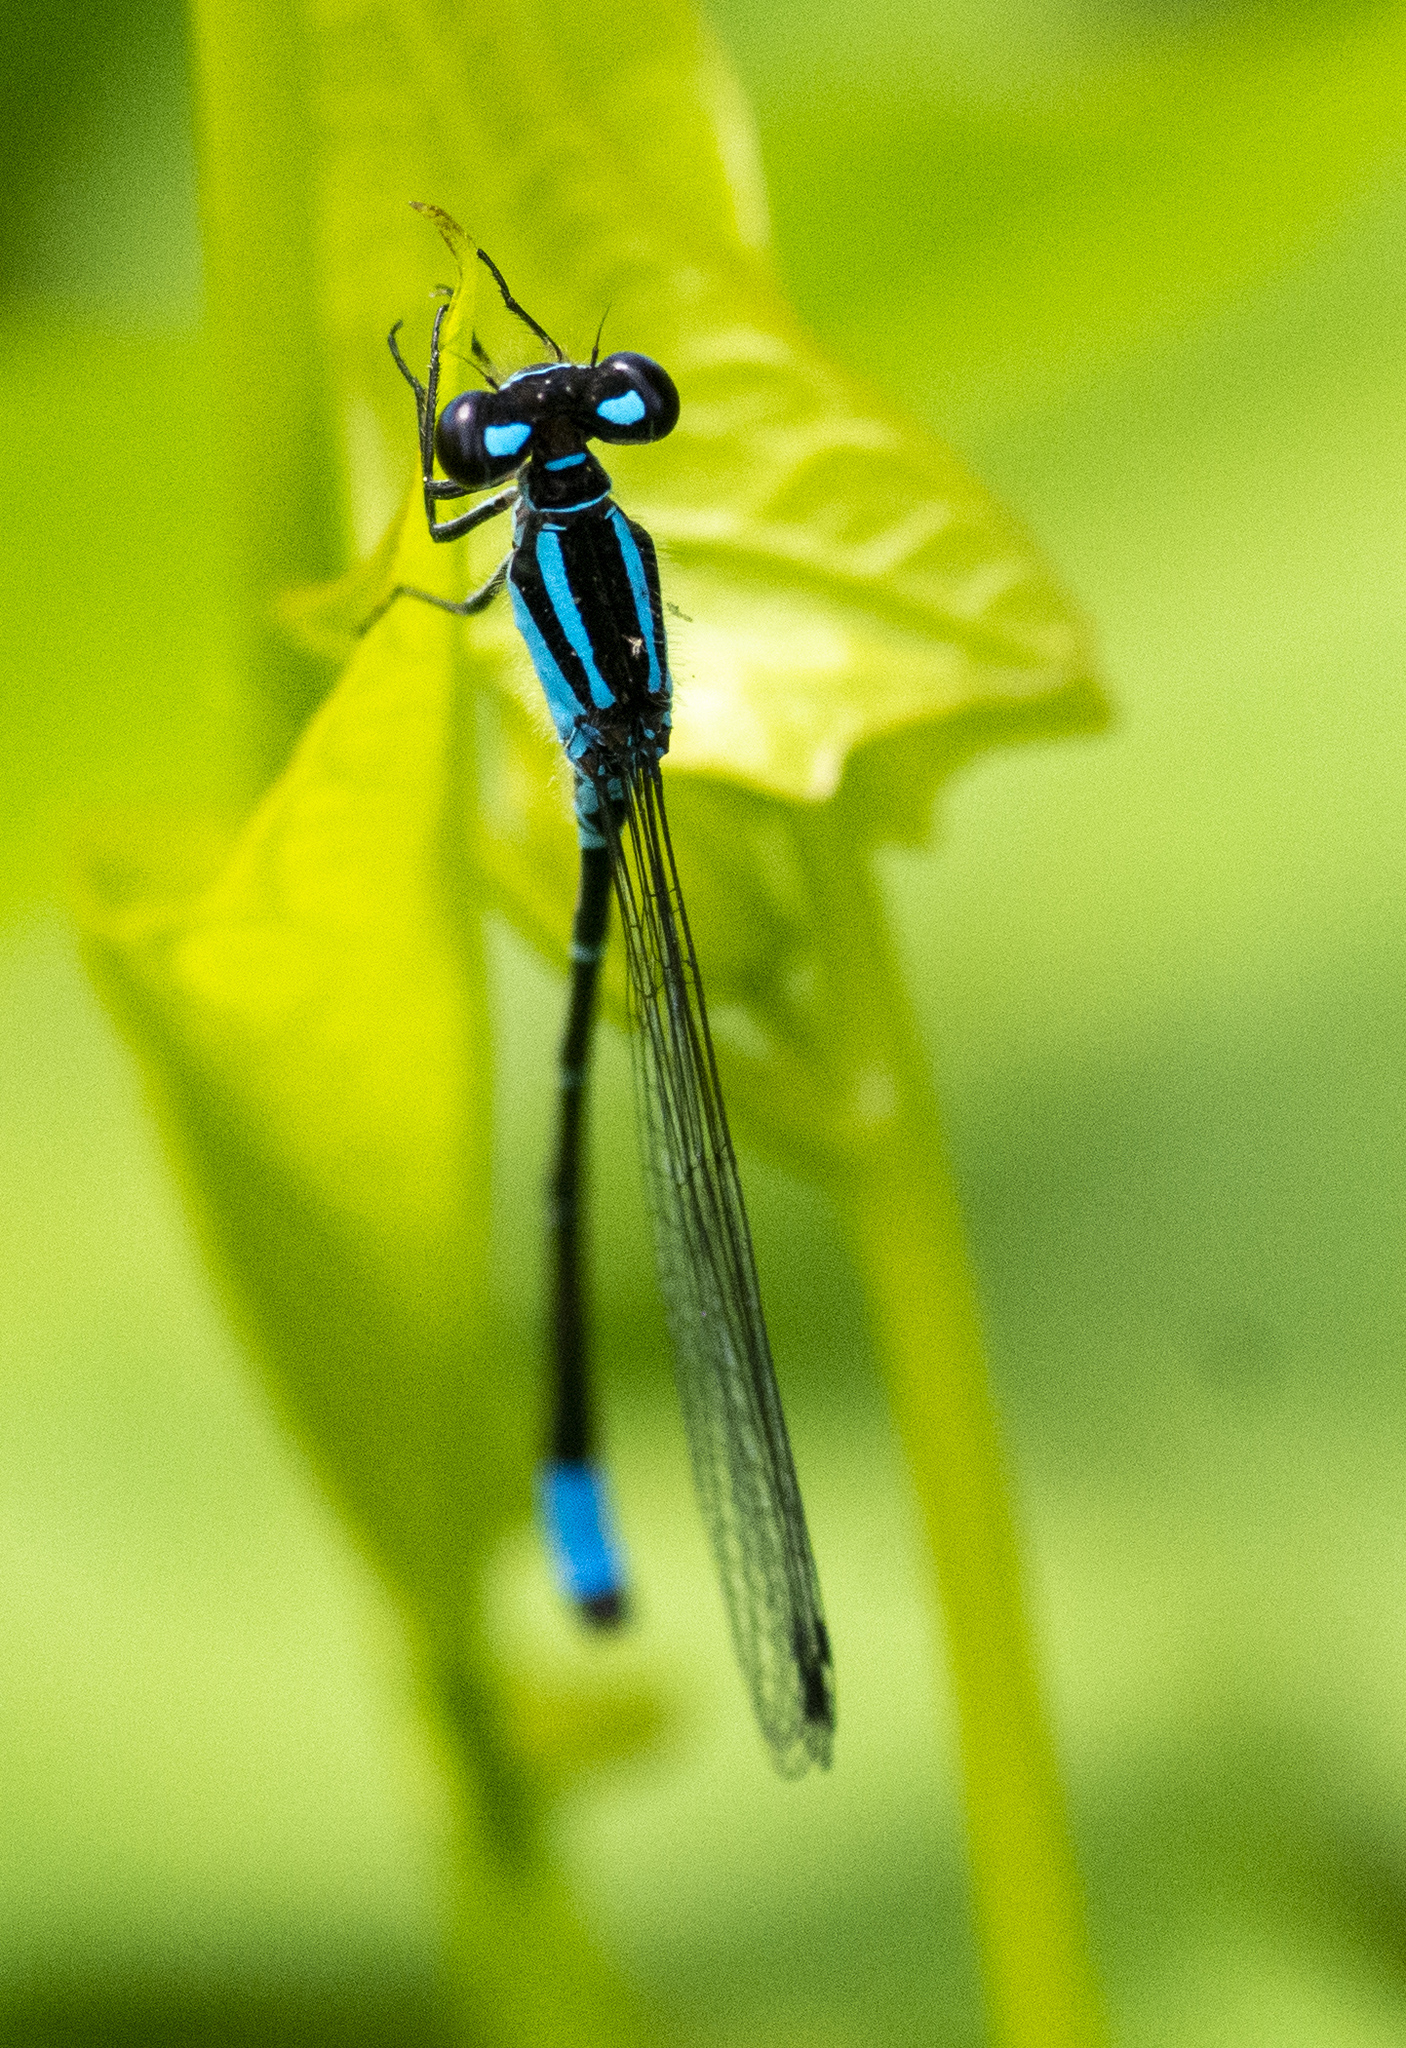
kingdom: Animalia
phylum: Arthropoda
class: Insecta
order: Odonata
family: Coenagrionidae
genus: Enallagma
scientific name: Enallagma geminatum
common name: Skimming bluet
